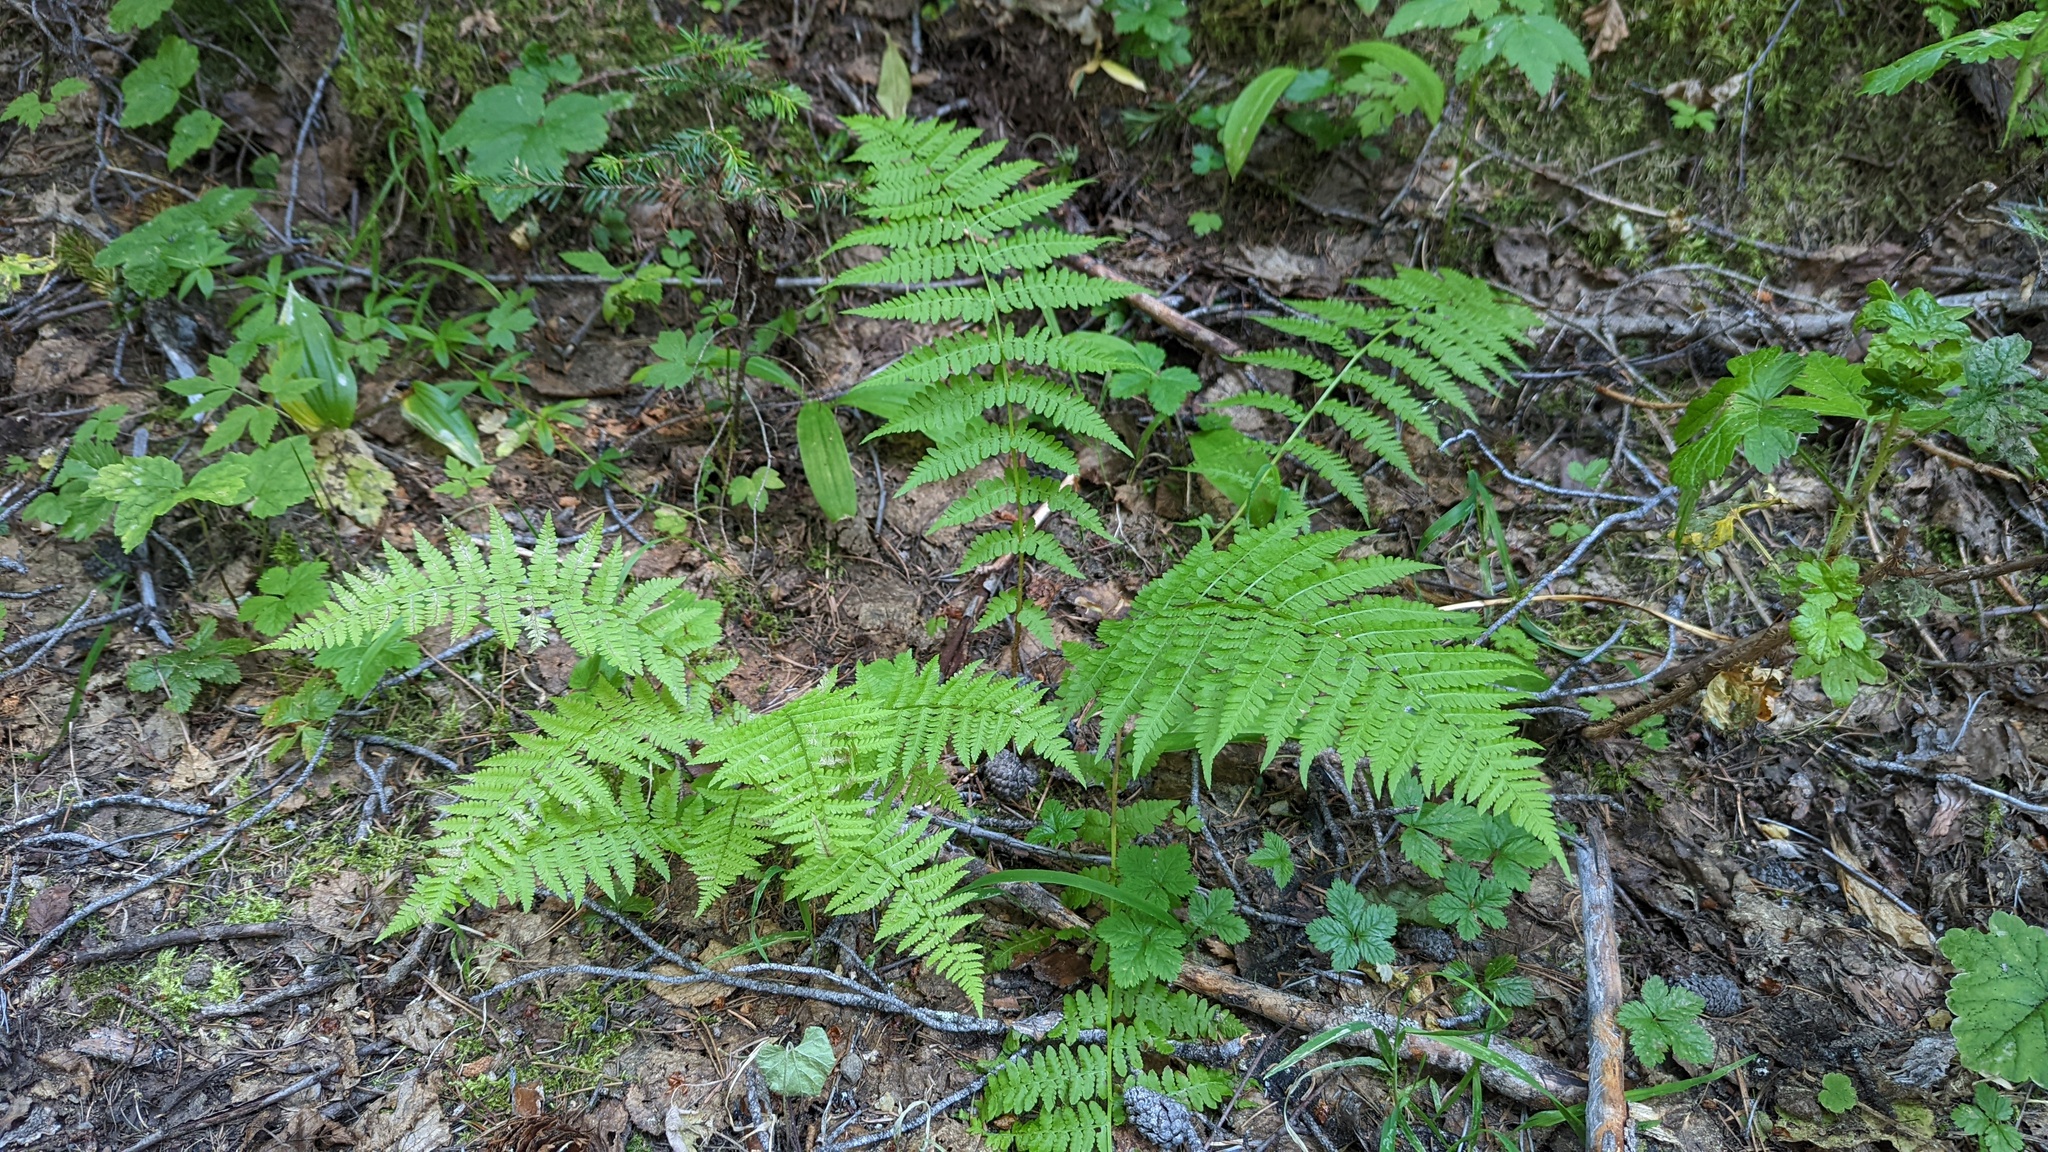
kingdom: Plantae
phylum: Tracheophyta
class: Polypodiopsida
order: Polypodiales
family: Athyriaceae
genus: Athyrium
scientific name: Athyrium filix-femina
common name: Lady fern
